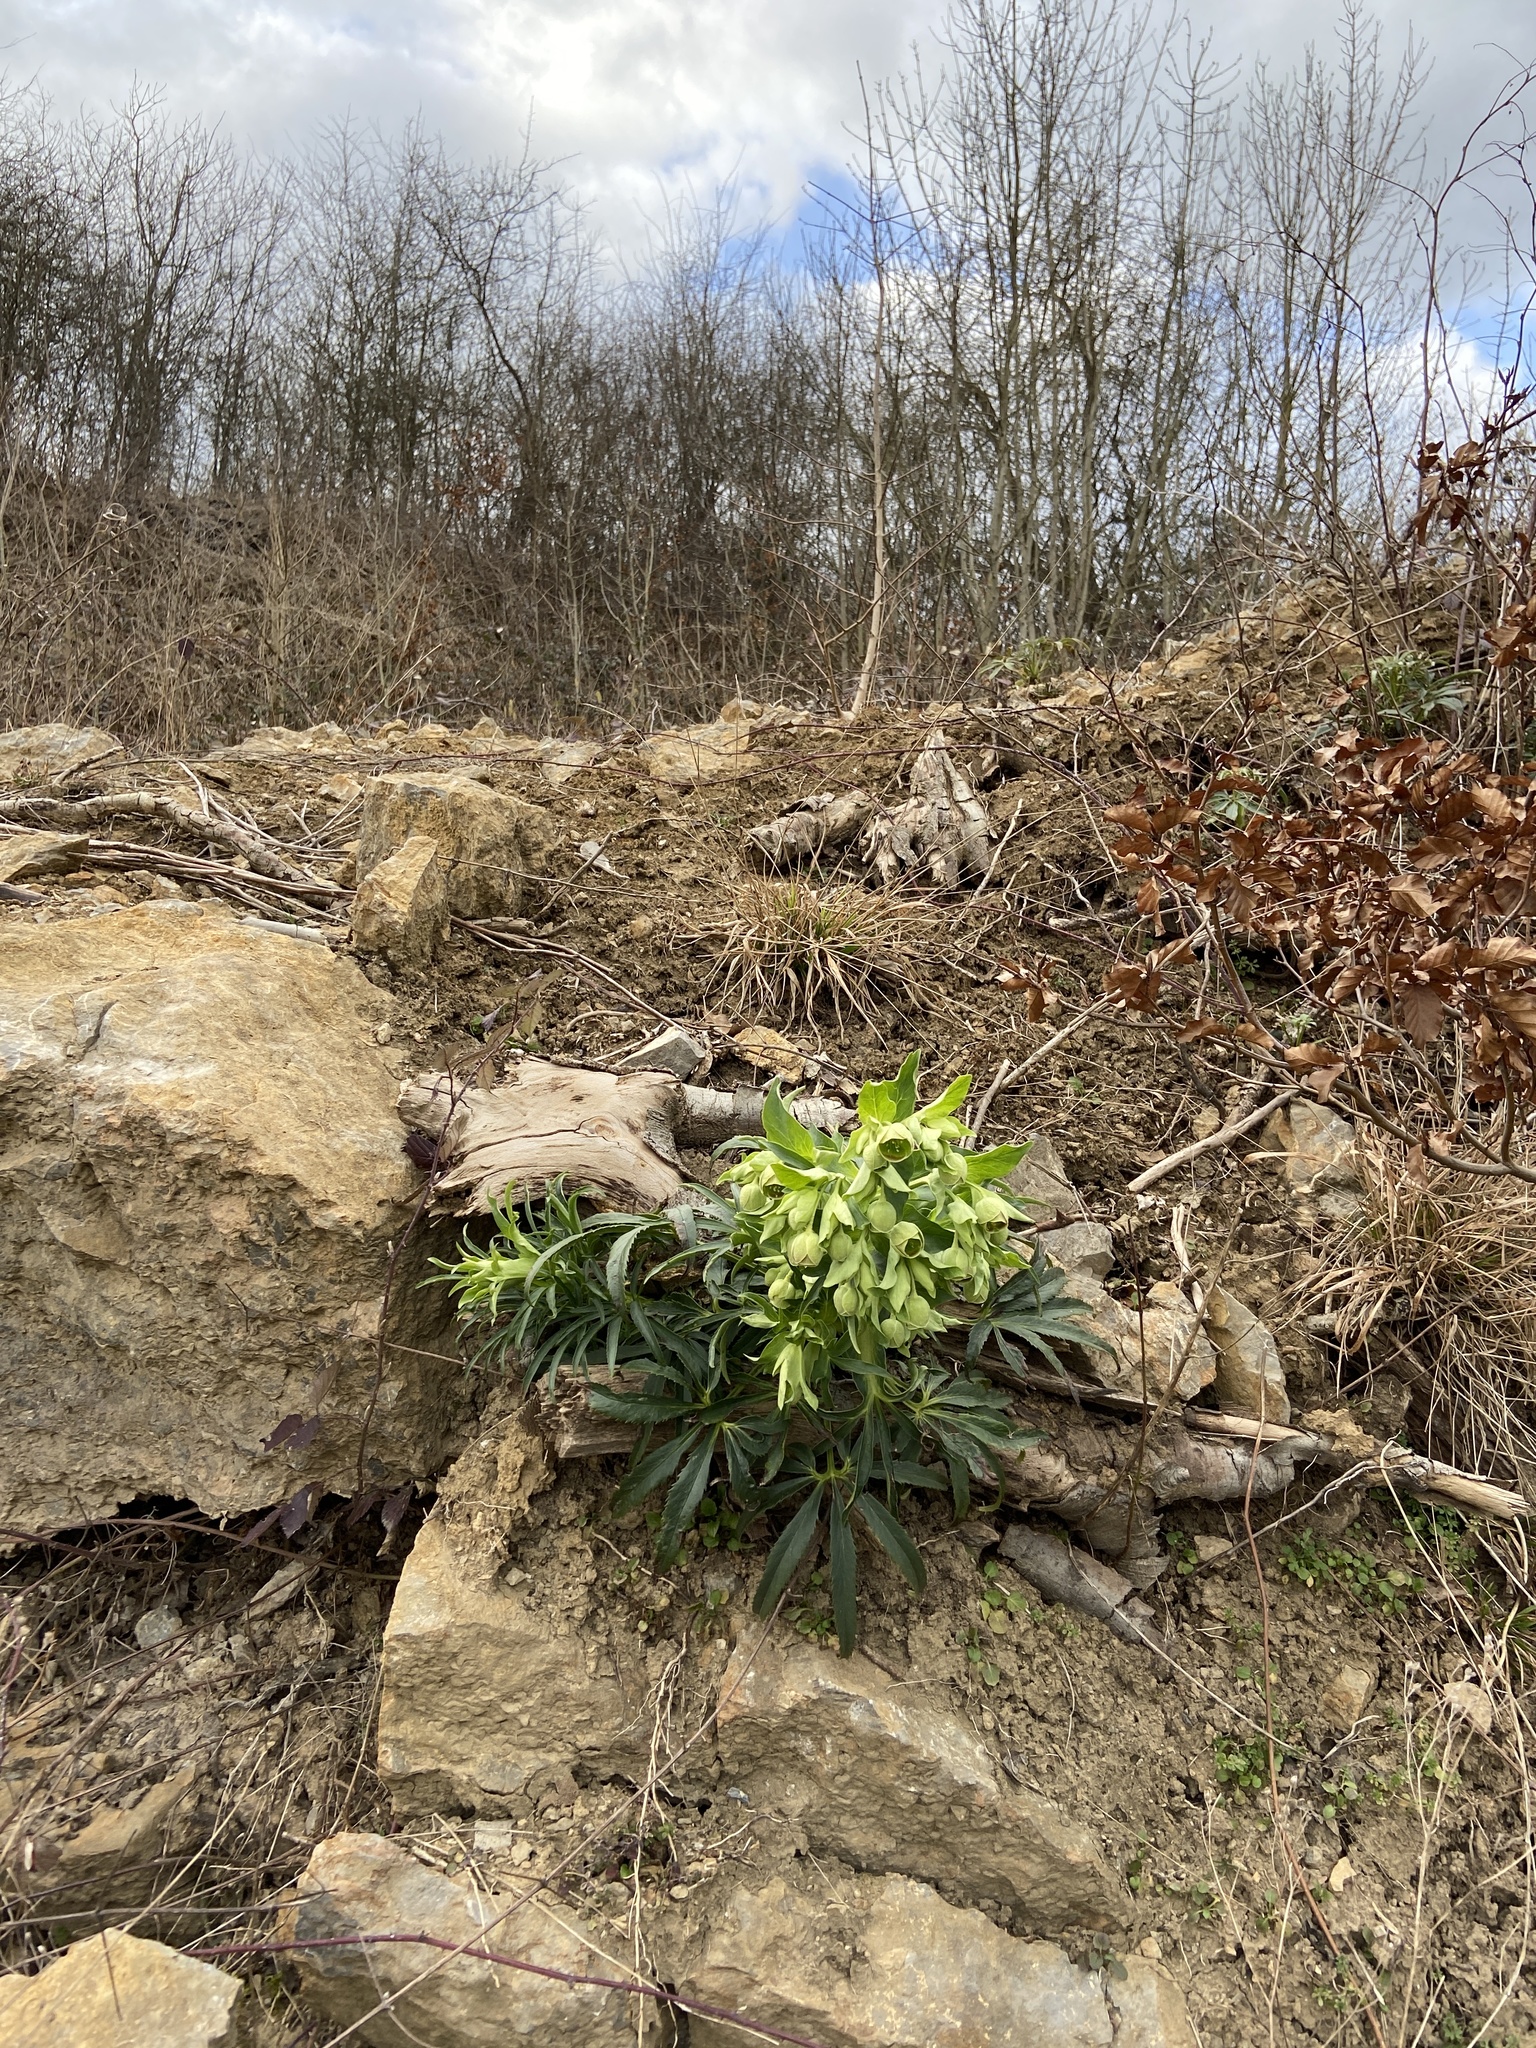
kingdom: Plantae
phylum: Tracheophyta
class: Magnoliopsida
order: Ranunculales
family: Ranunculaceae
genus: Helleborus
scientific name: Helleborus foetidus
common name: Stinking hellebore
